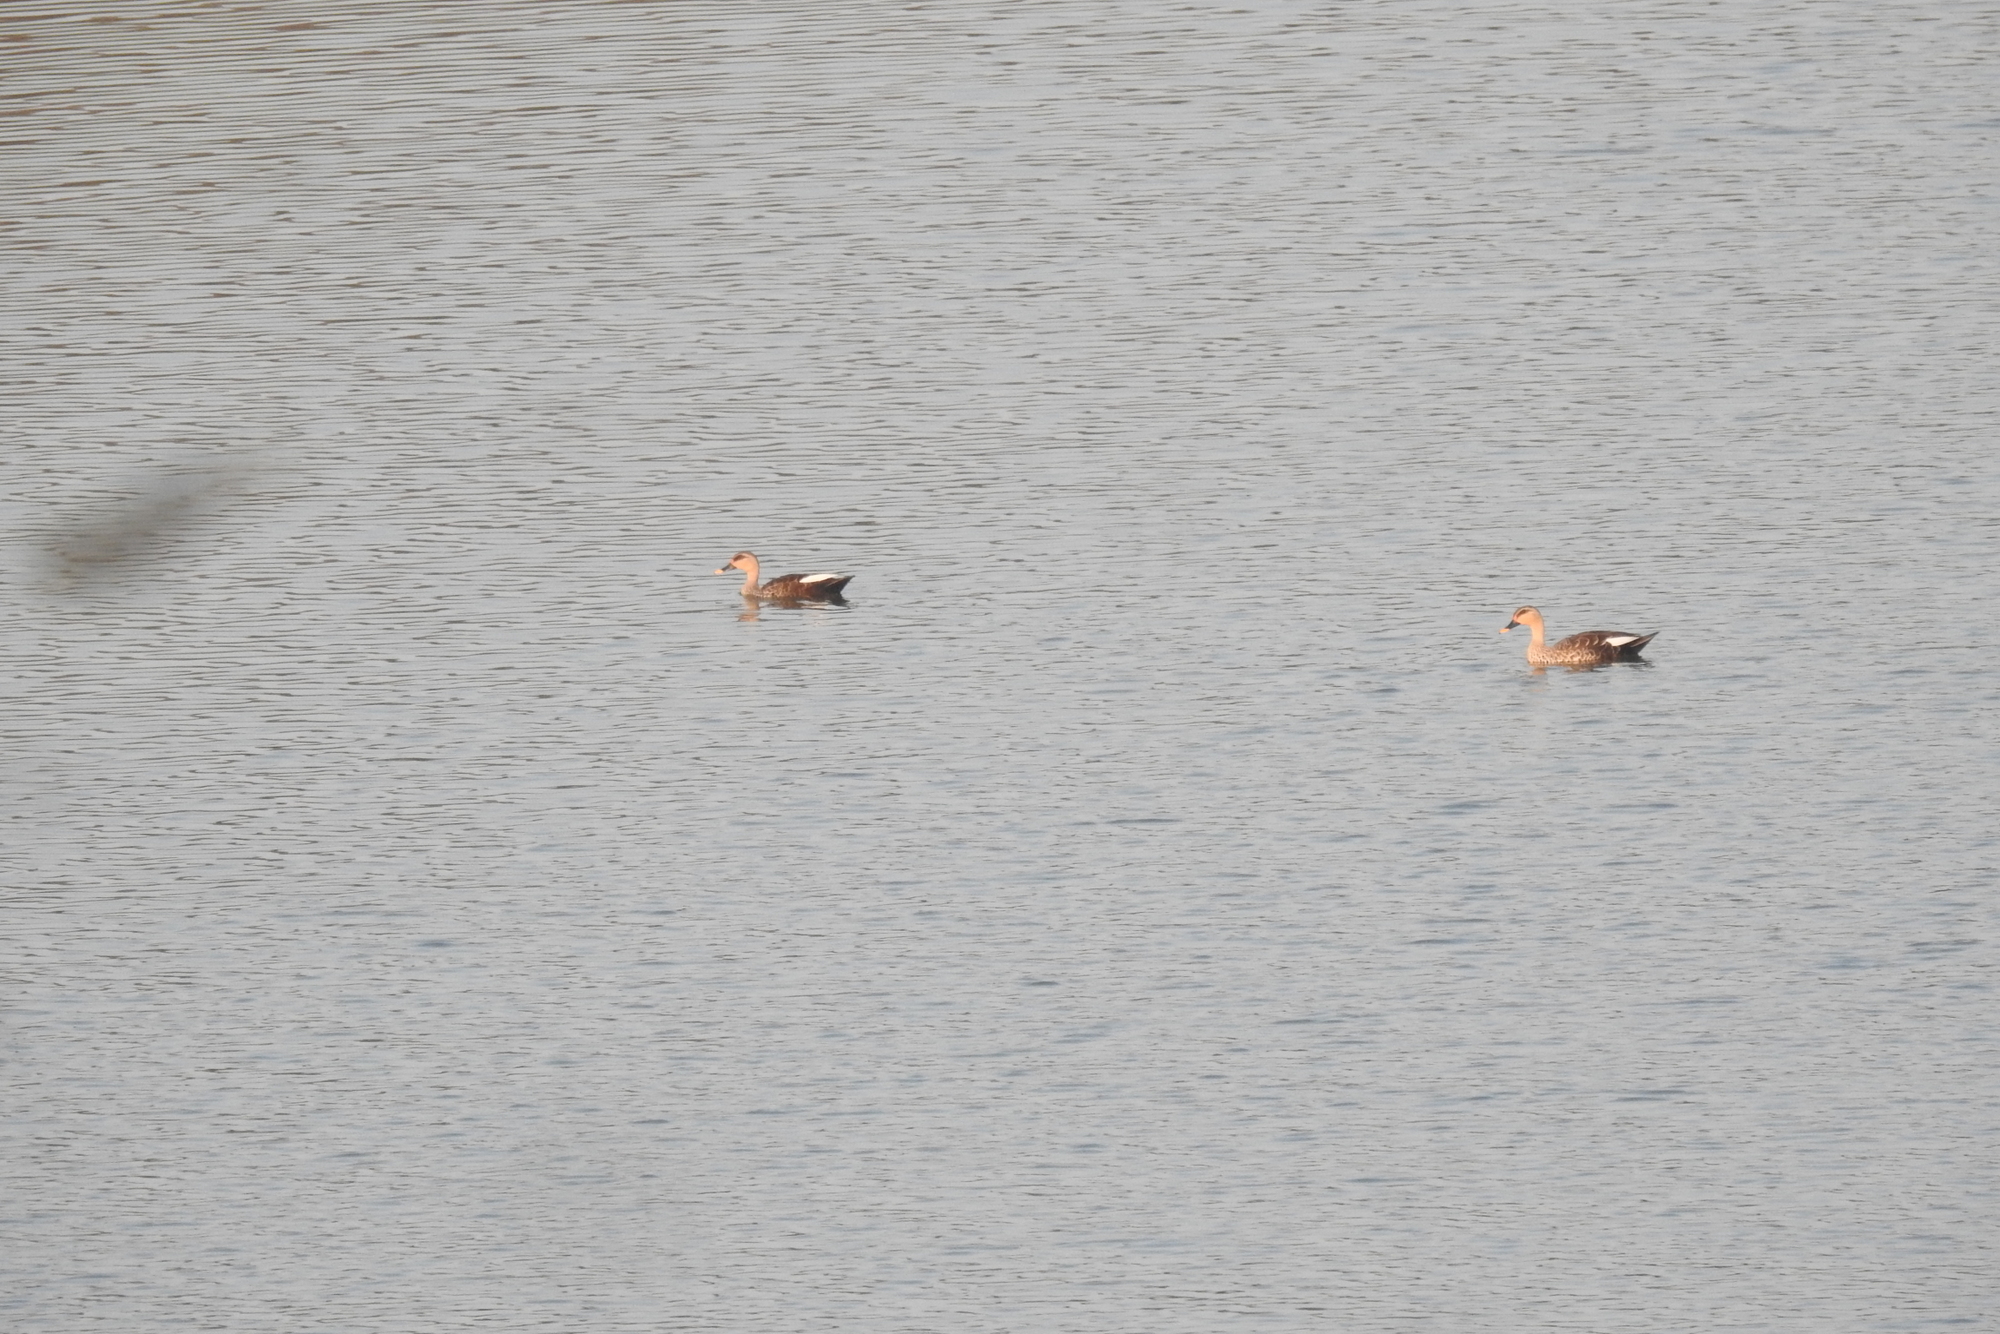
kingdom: Animalia
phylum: Chordata
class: Aves
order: Anseriformes
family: Anatidae
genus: Anas
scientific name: Anas poecilorhyncha
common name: Indian spot-billed duck
